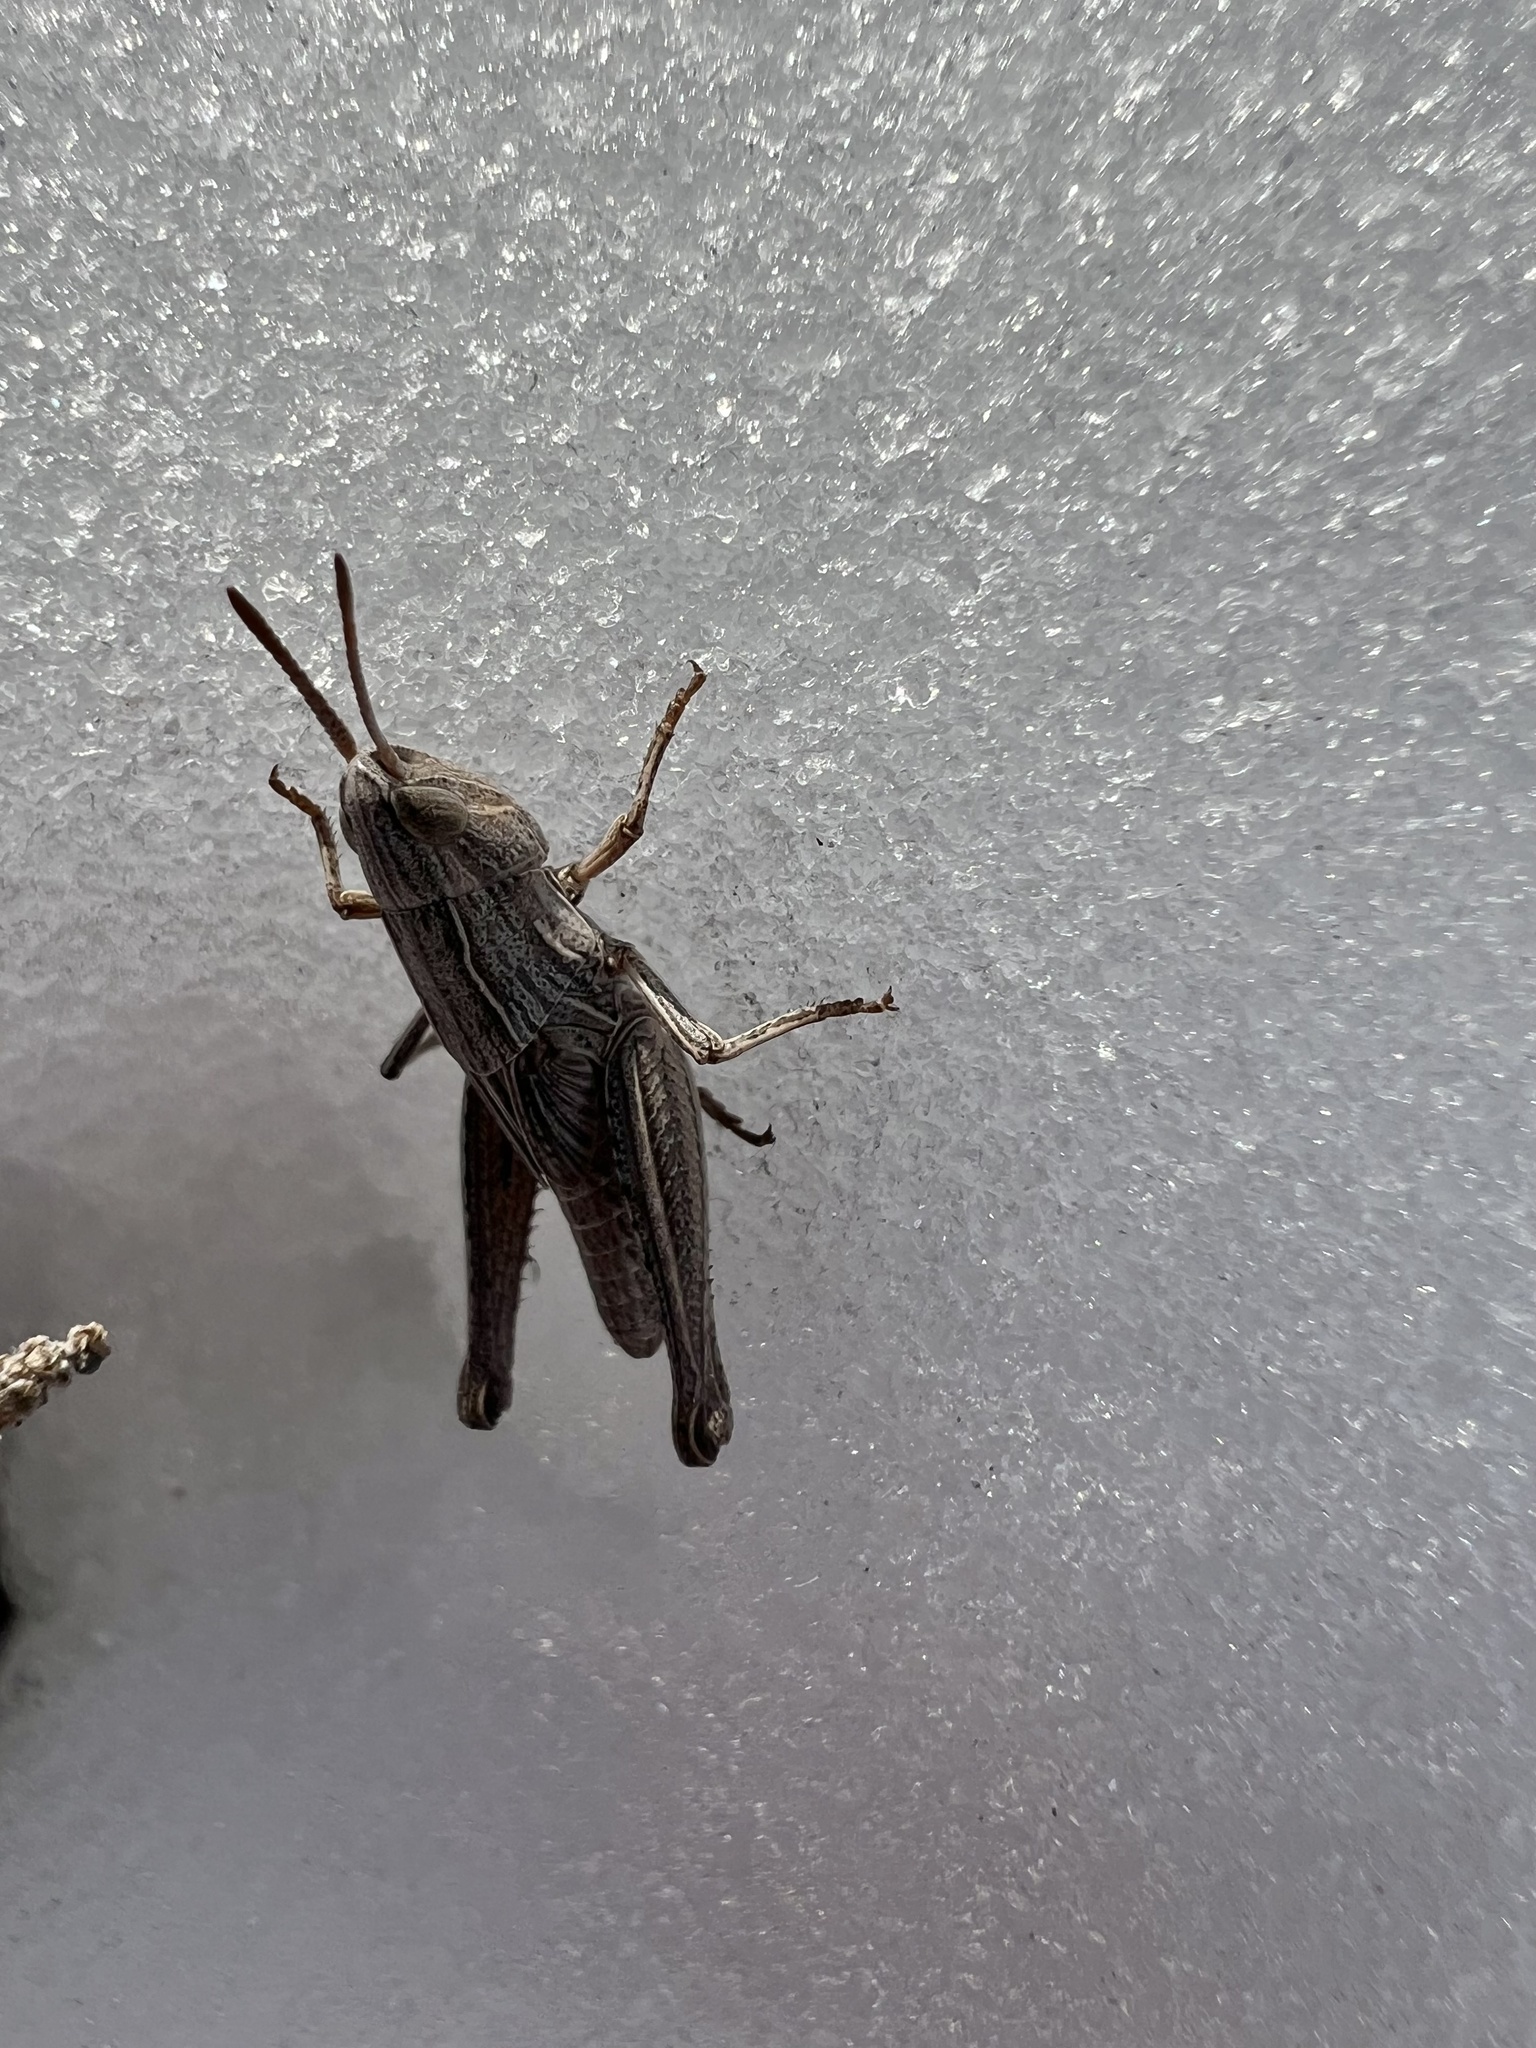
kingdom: Animalia
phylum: Arthropoda
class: Insecta
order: Orthoptera
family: Acrididae
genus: Eritettix
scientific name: Eritettix simplex
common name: Velvet-striped grasshopper
